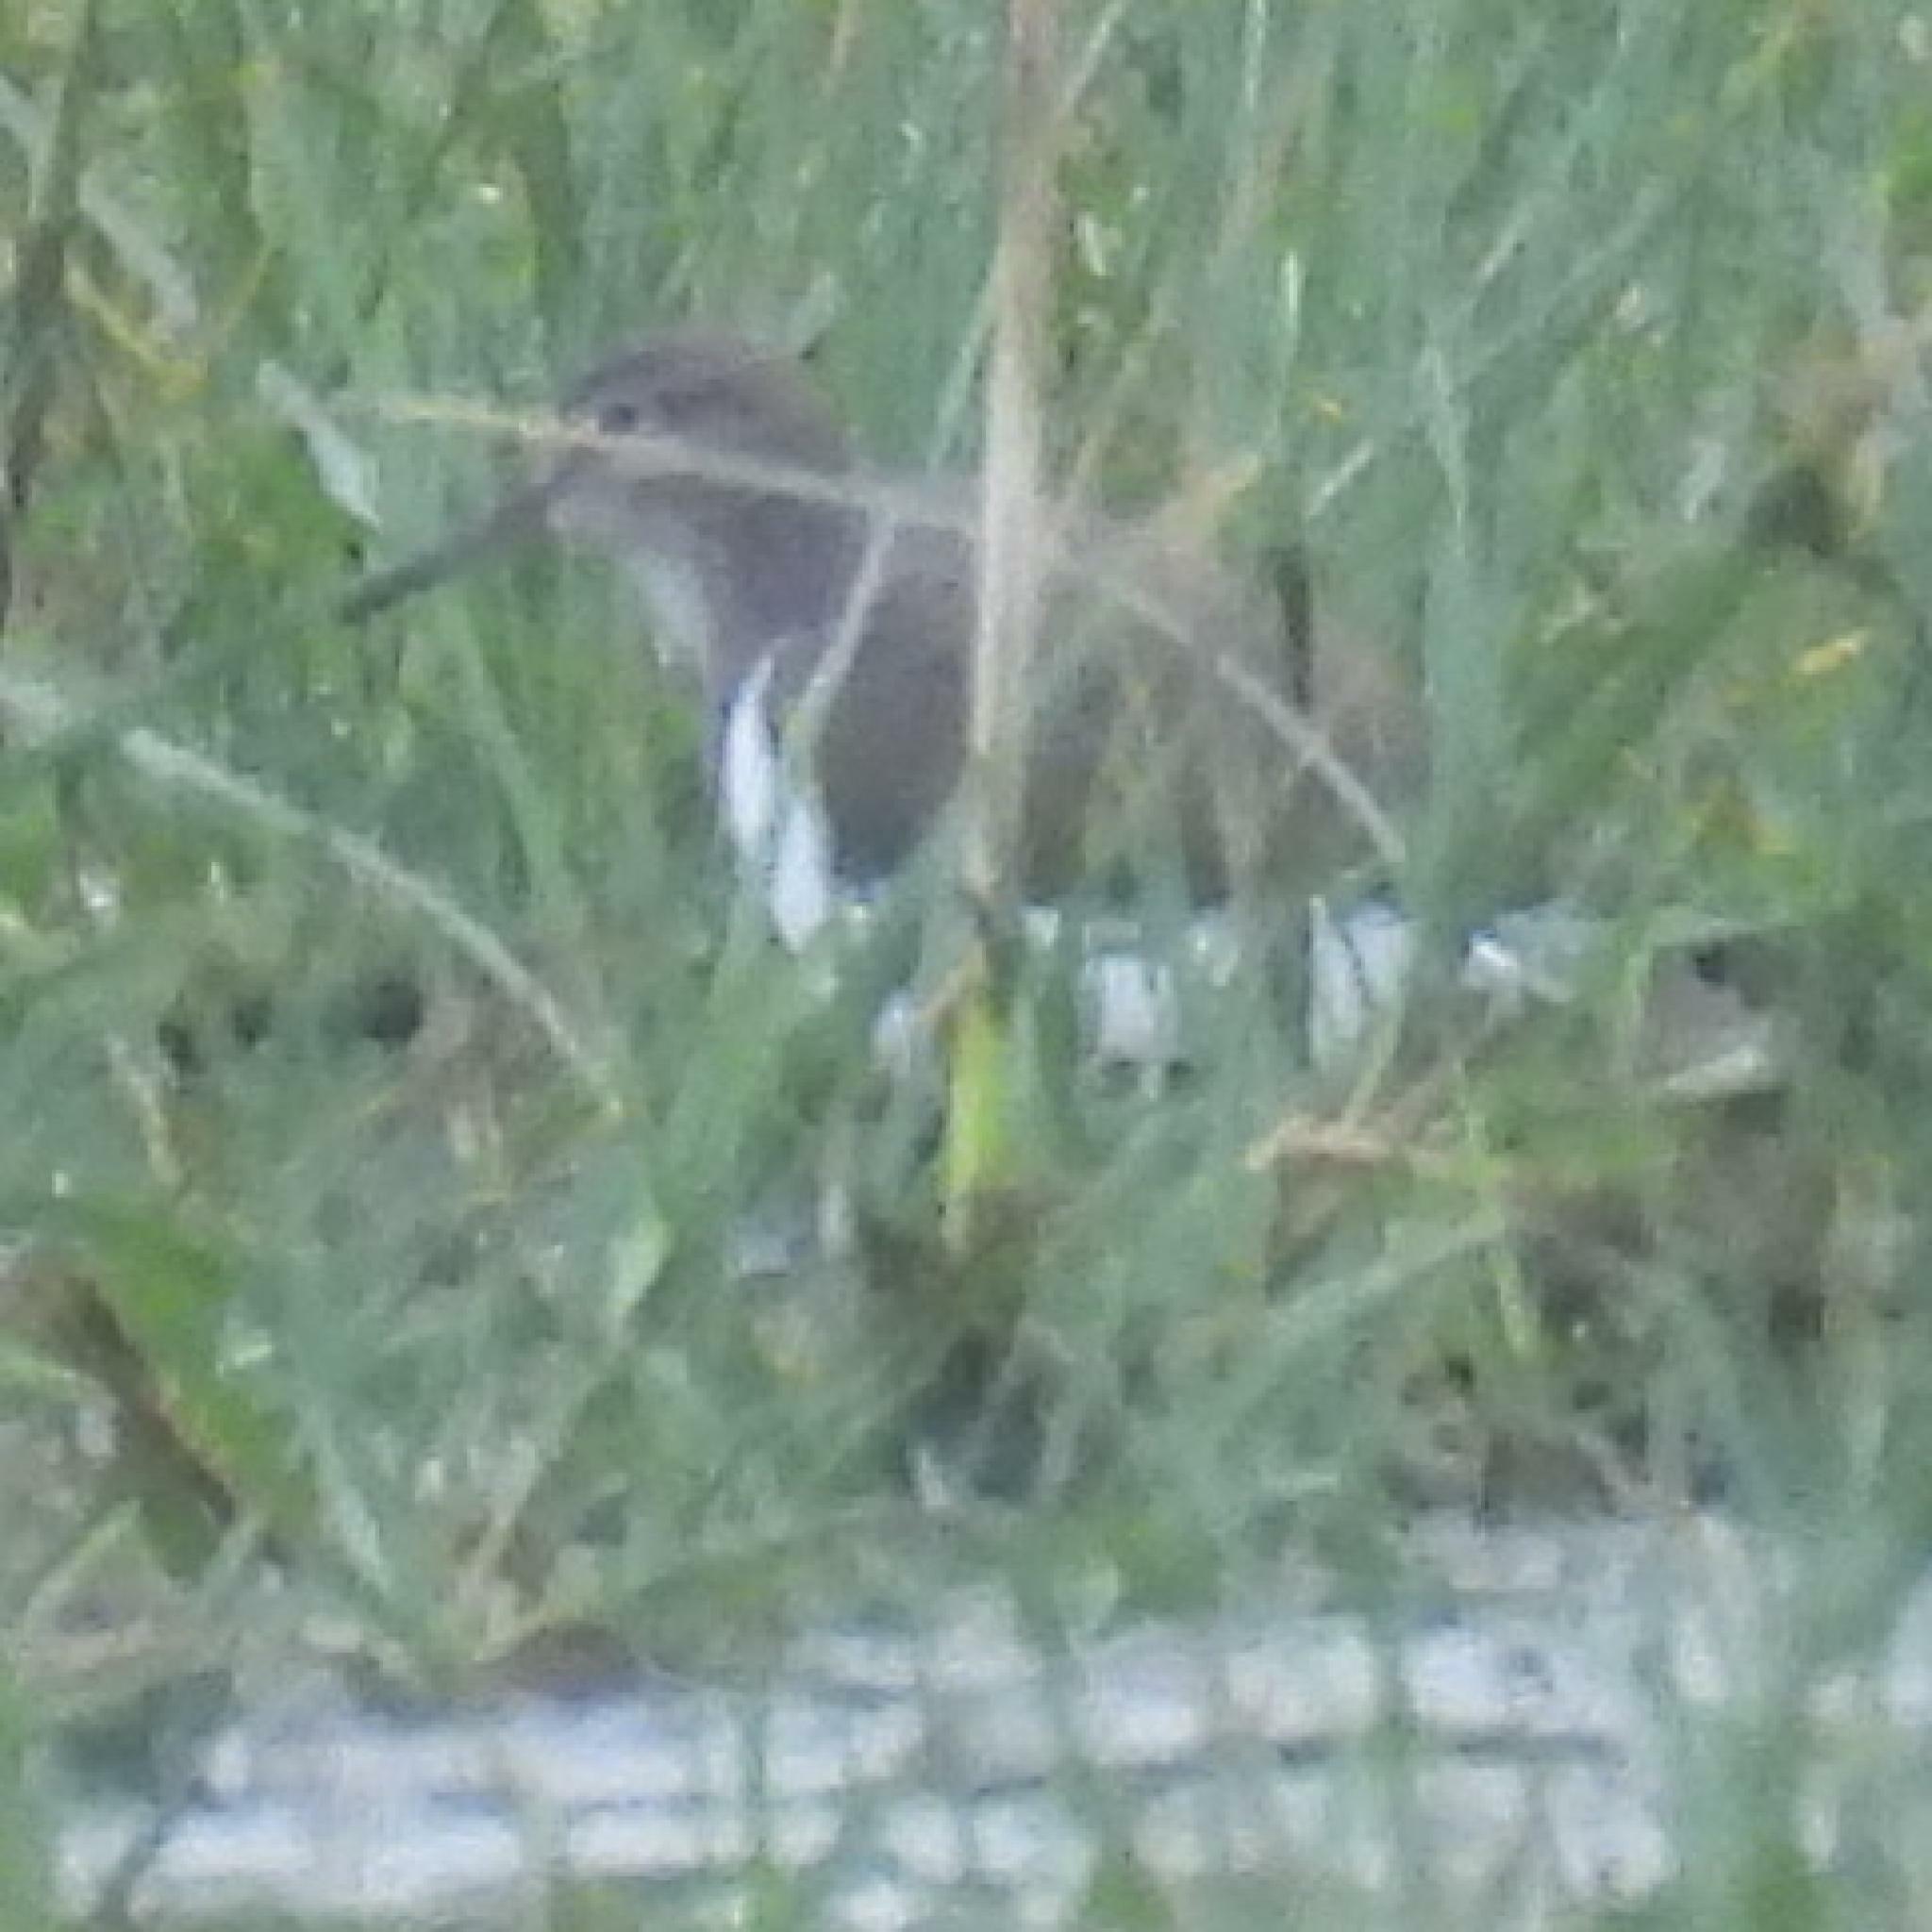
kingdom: Animalia
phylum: Chordata
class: Aves
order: Charadriiformes
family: Scolopacidae
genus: Actitis
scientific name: Actitis hypoleucos
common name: Common sandpiper
